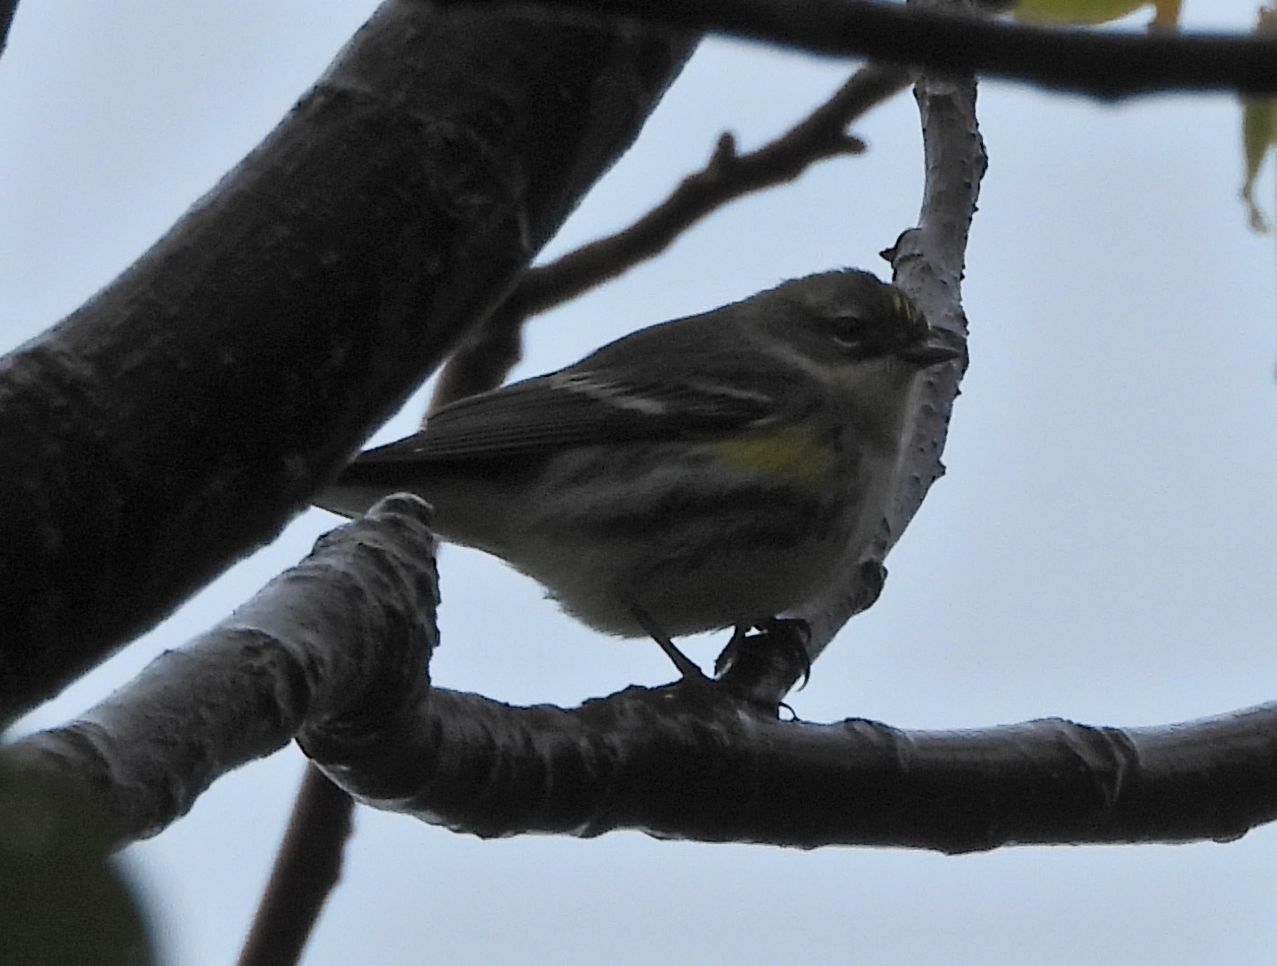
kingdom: Animalia
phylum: Chordata
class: Aves
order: Passeriformes
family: Parulidae
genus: Setophaga
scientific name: Setophaga coronata
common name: Myrtle warbler
